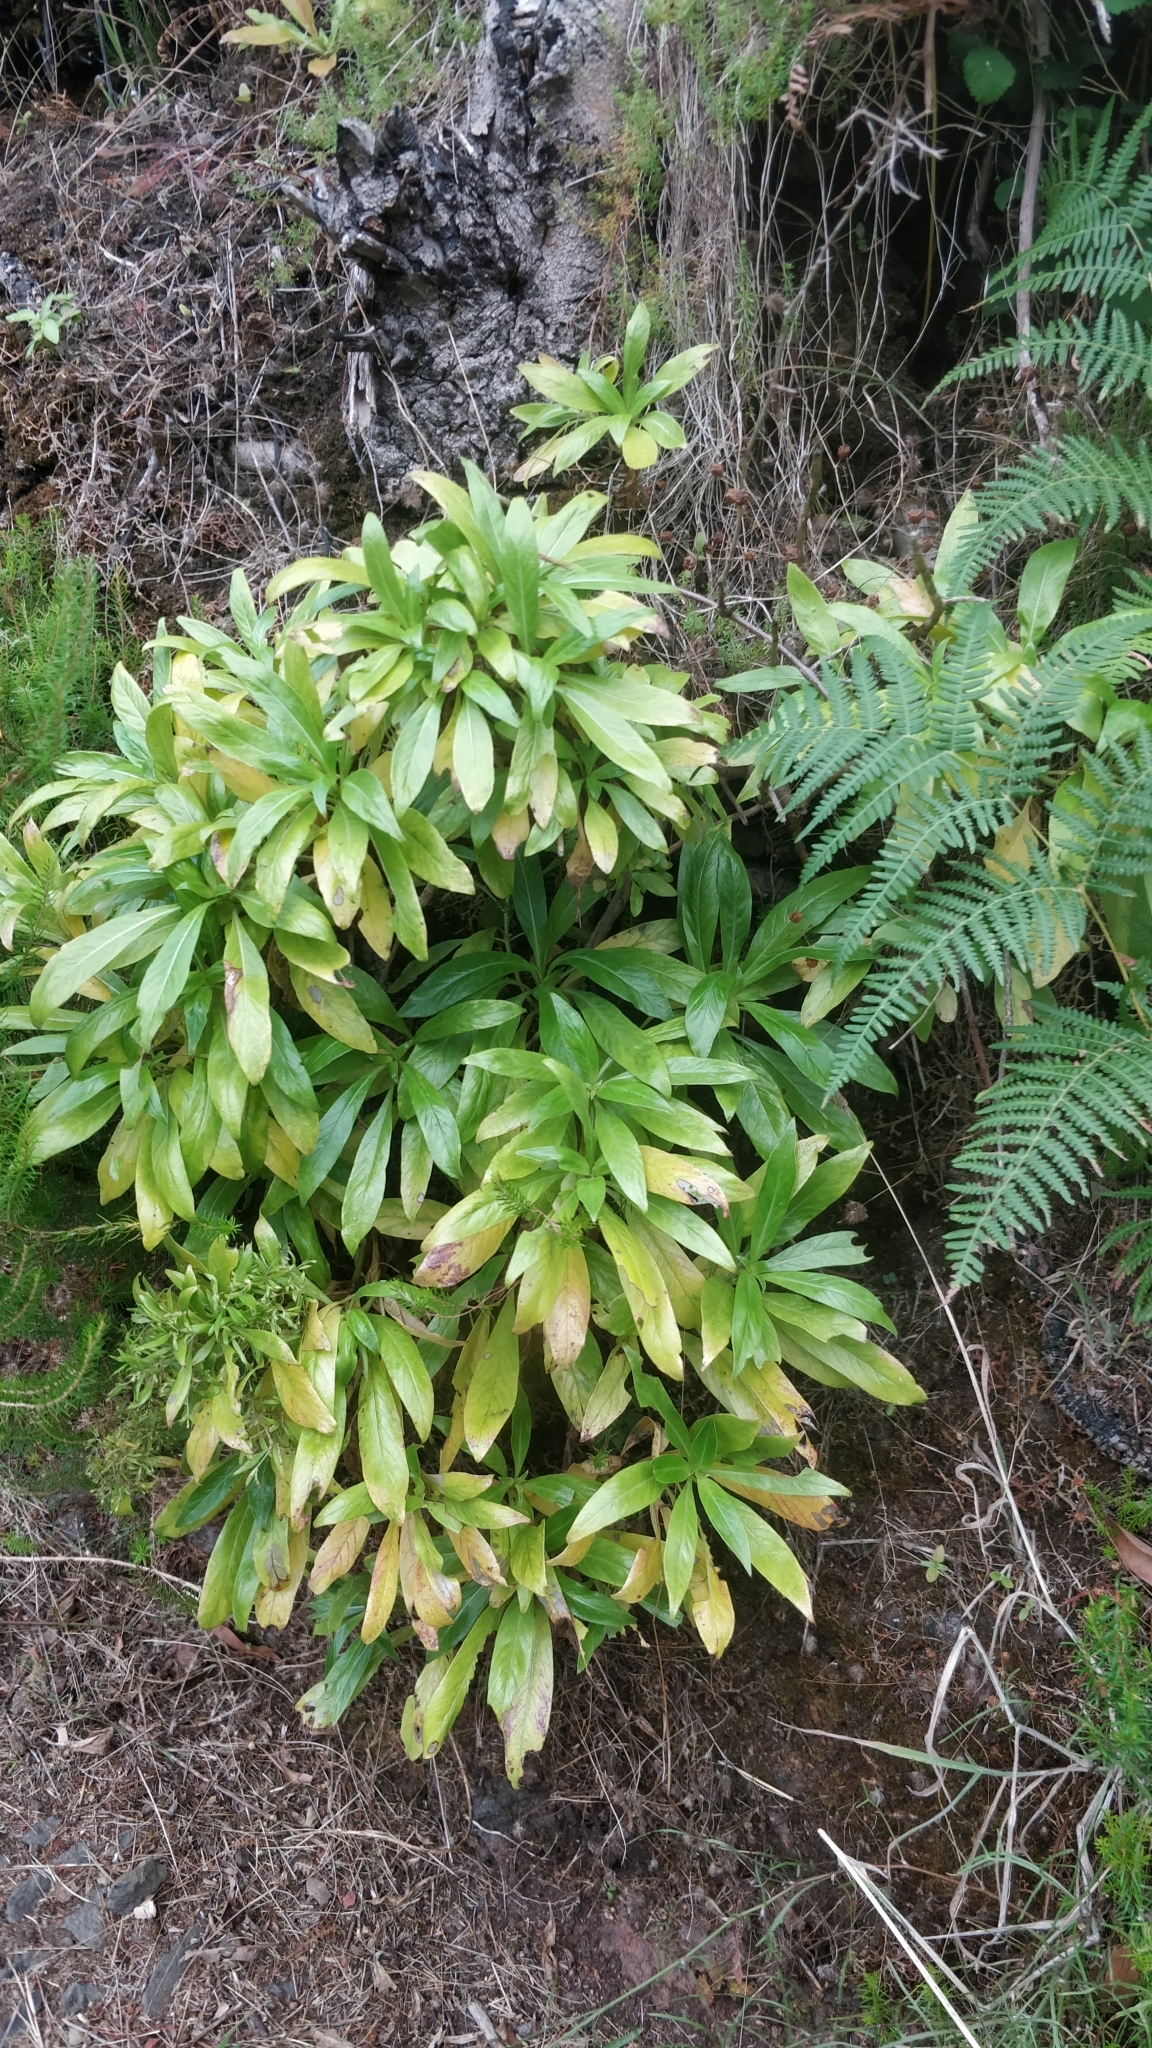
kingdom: Plantae
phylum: Tracheophyta
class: Magnoliopsida
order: Gentianales
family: Rubiaceae
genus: Phyllis
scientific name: Phyllis nobla
